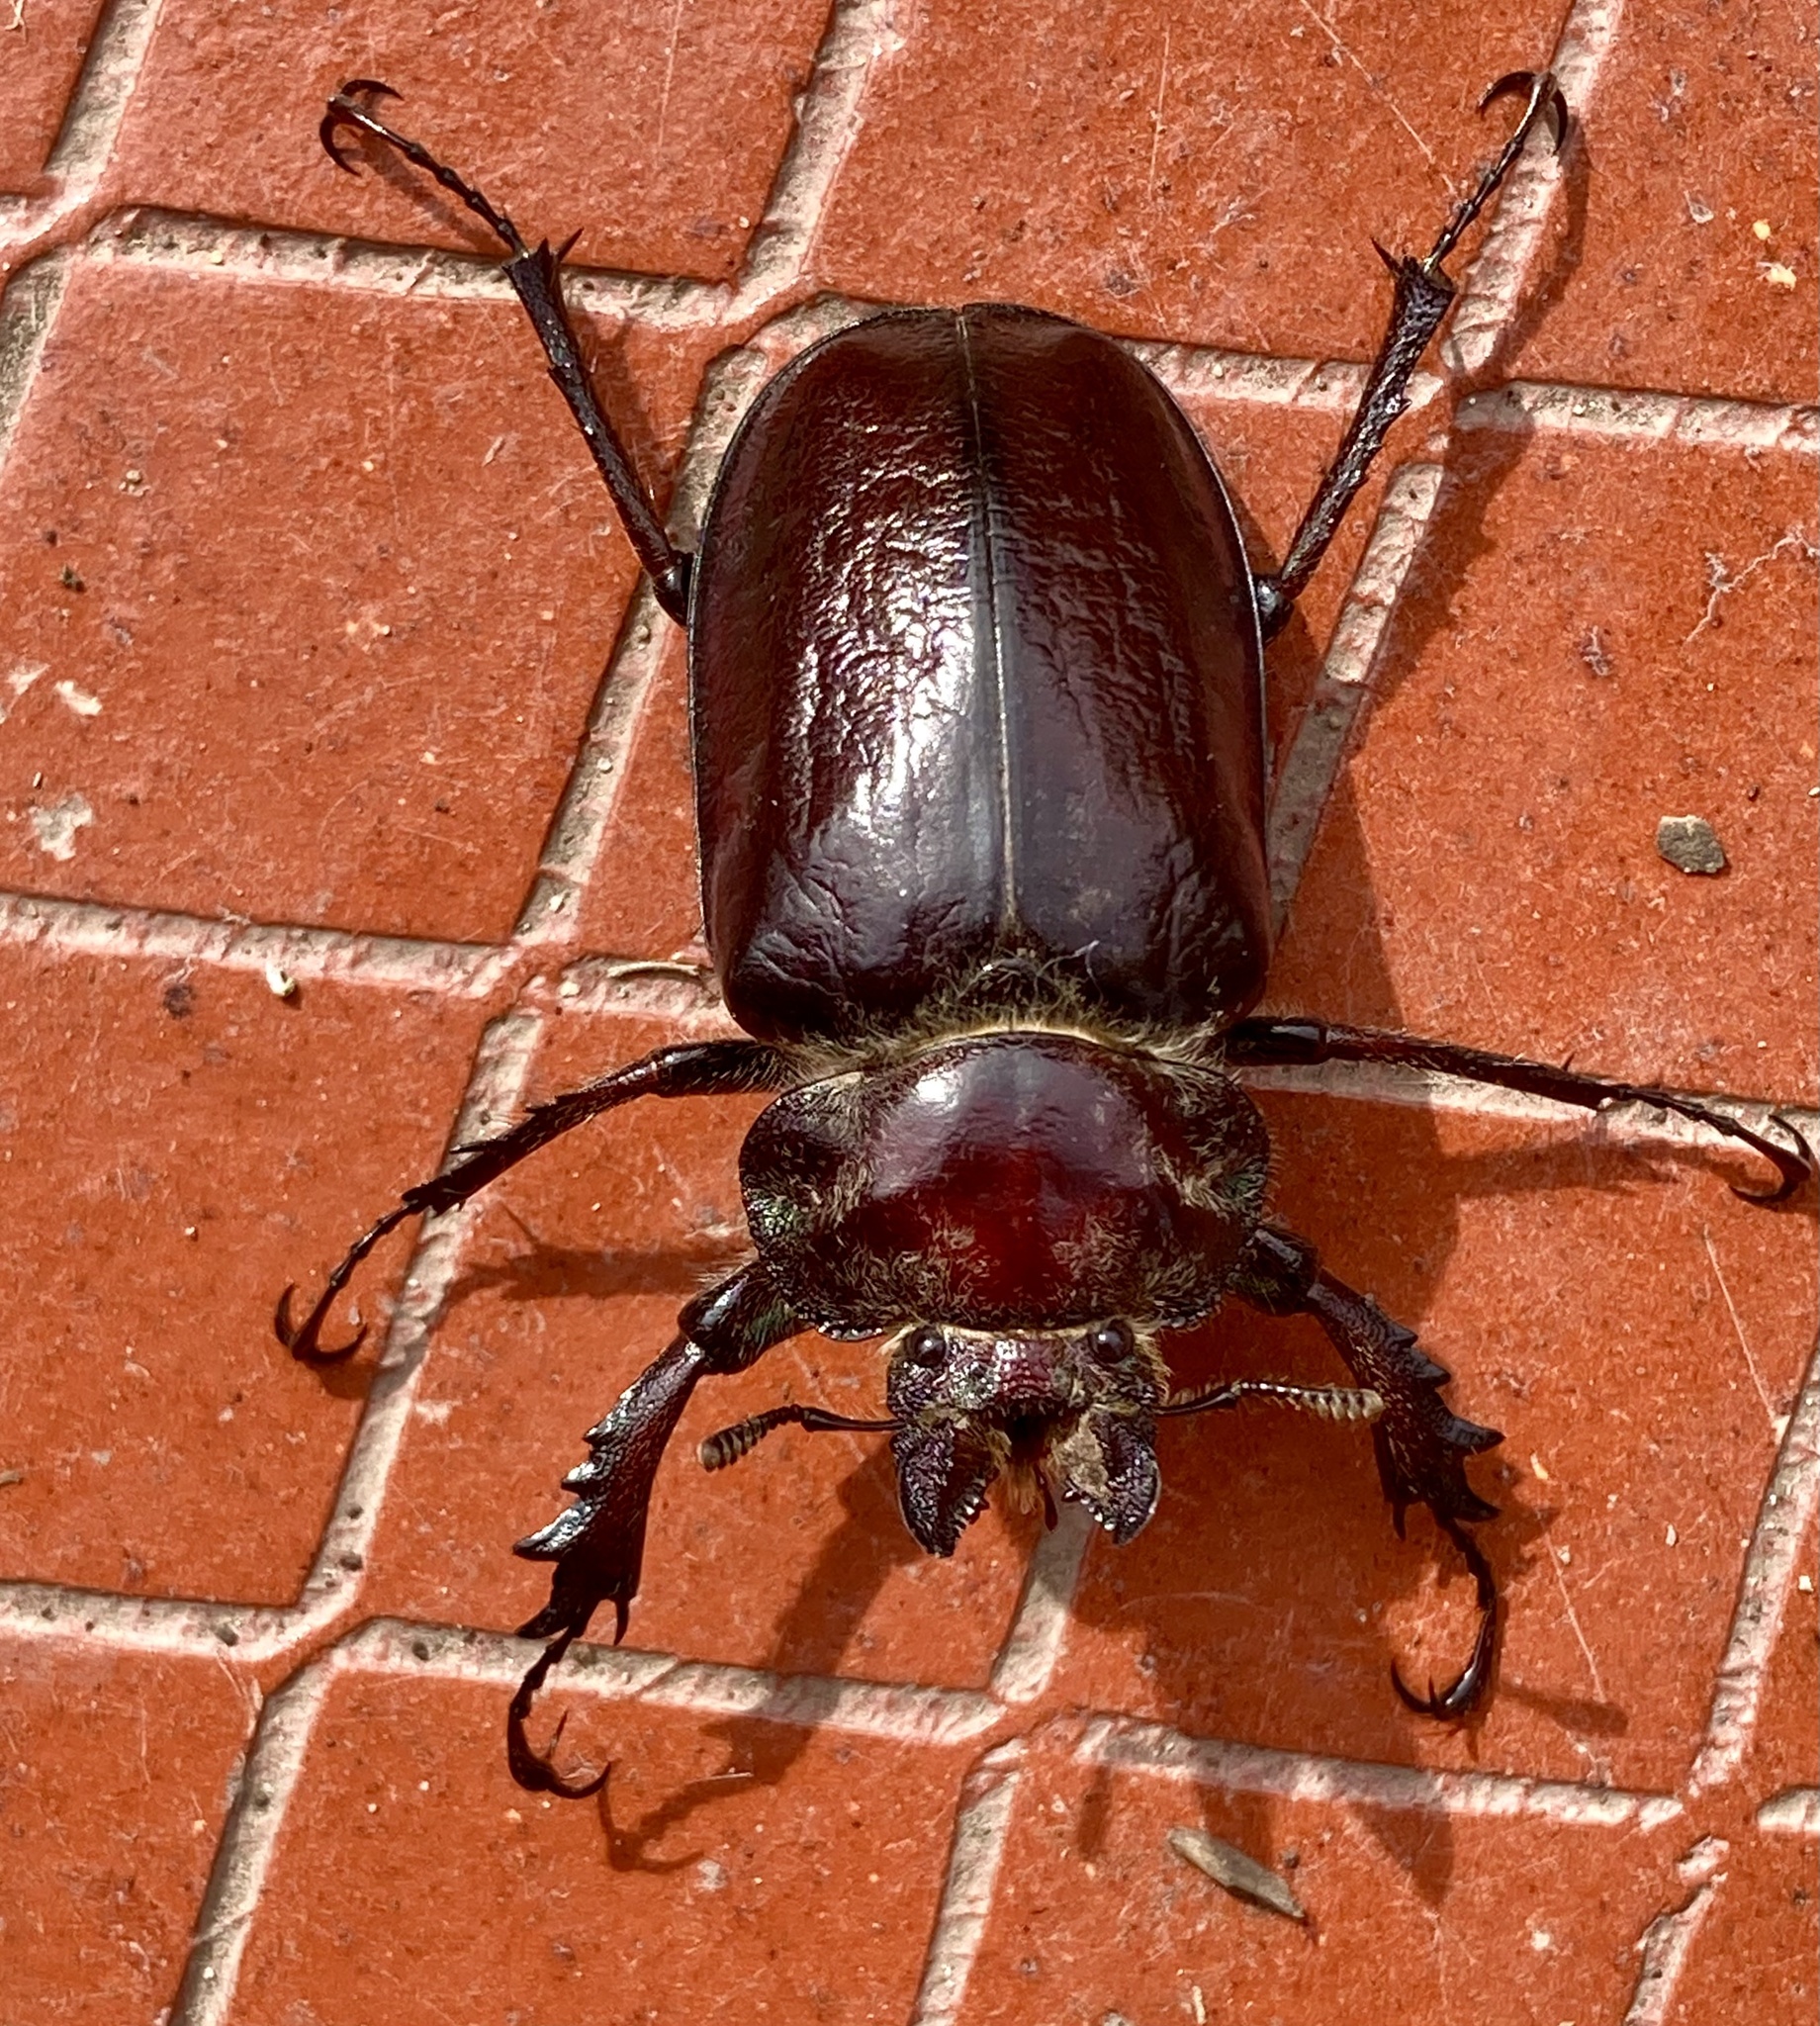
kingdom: Animalia
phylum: Arthropoda
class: Insecta
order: Coleoptera
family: Lucanidae
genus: Sphaenognathus
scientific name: Sphaenognathus armatus
